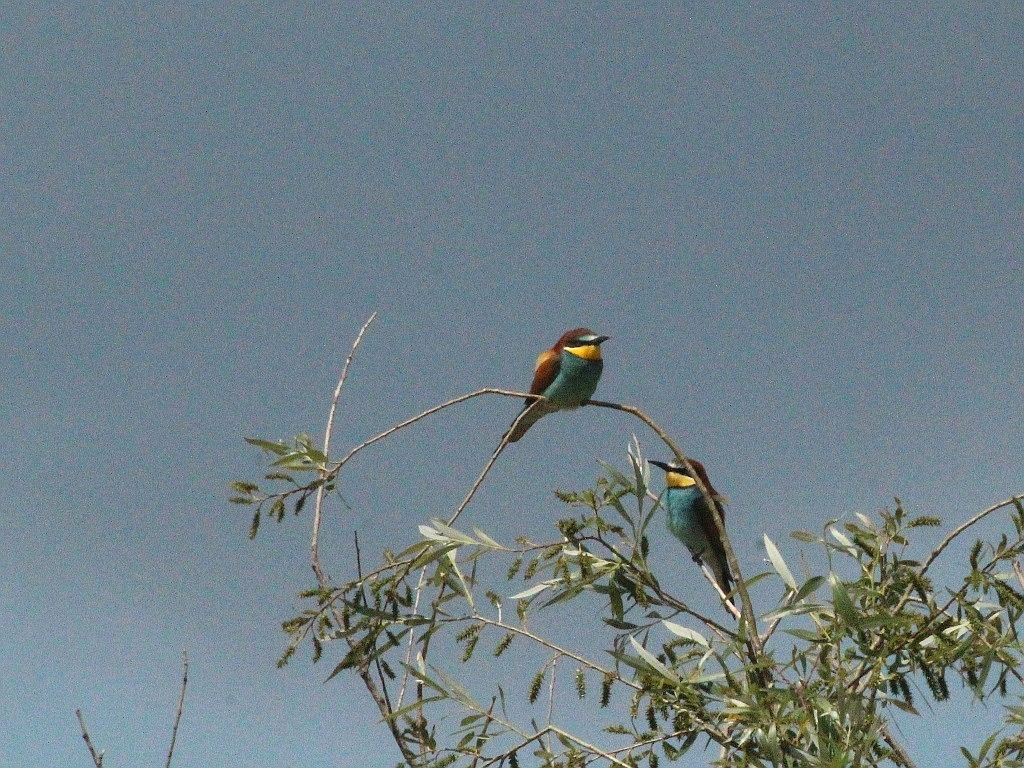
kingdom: Animalia
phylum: Chordata
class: Aves
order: Coraciiformes
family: Meropidae
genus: Merops
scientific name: Merops apiaster
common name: European bee-eater
